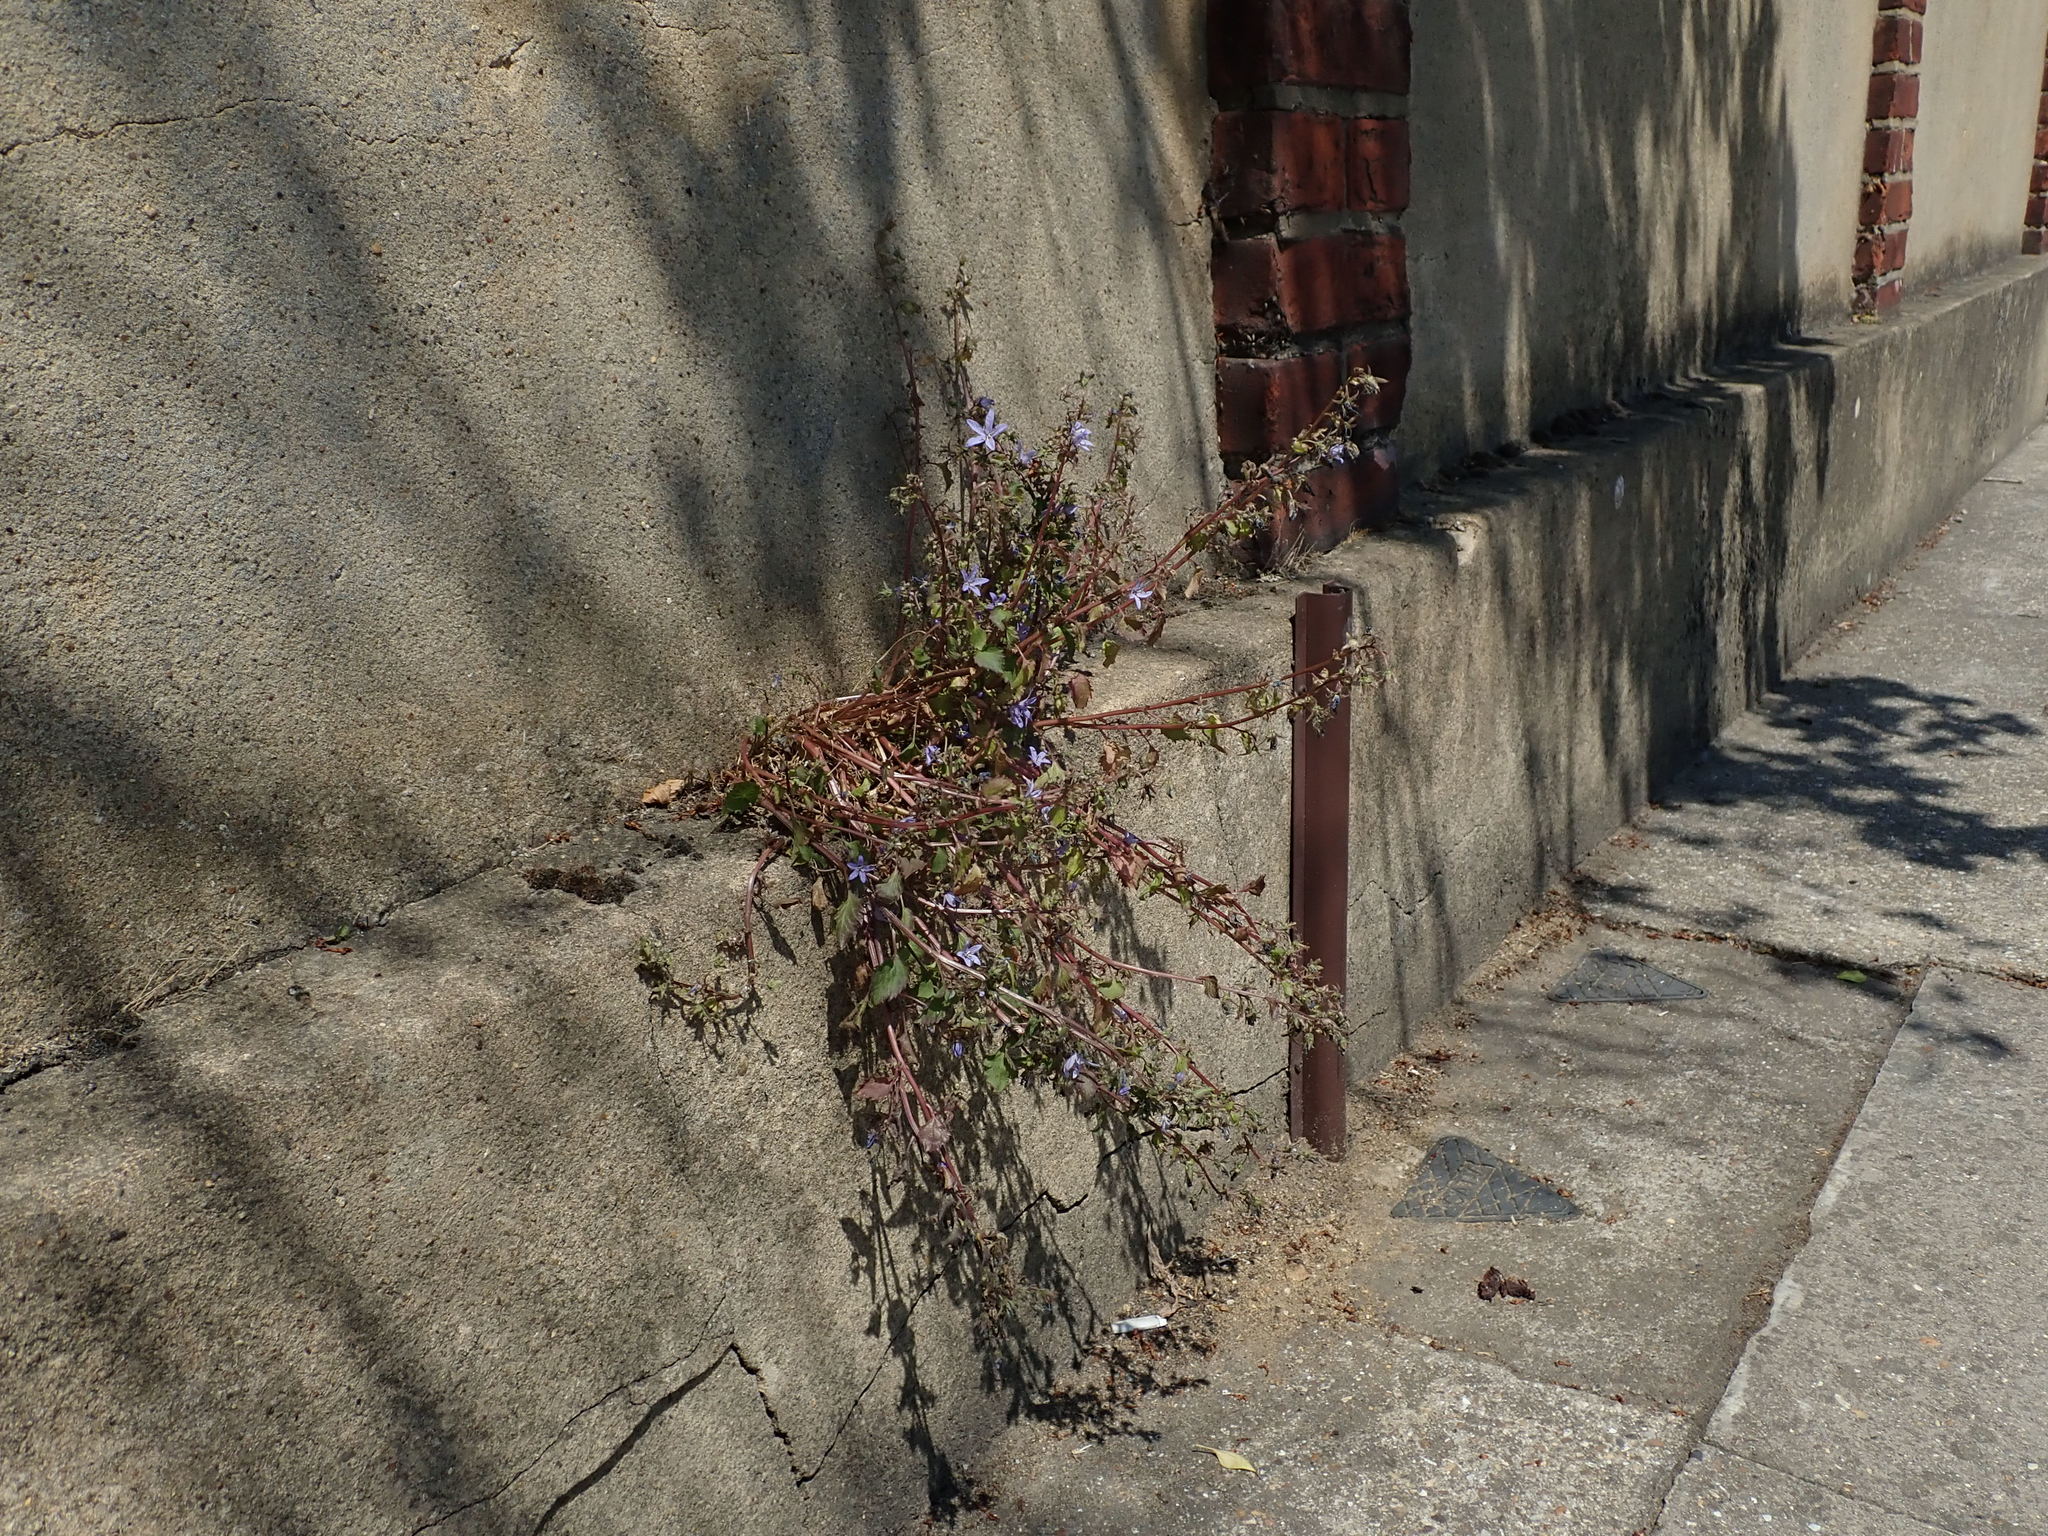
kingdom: Plantae
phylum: Tracheophyta
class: Magnoliopsida
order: Asterales
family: Campanulaceae
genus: Campanula
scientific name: Campanula poscharskyana
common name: Trailing bellflower
